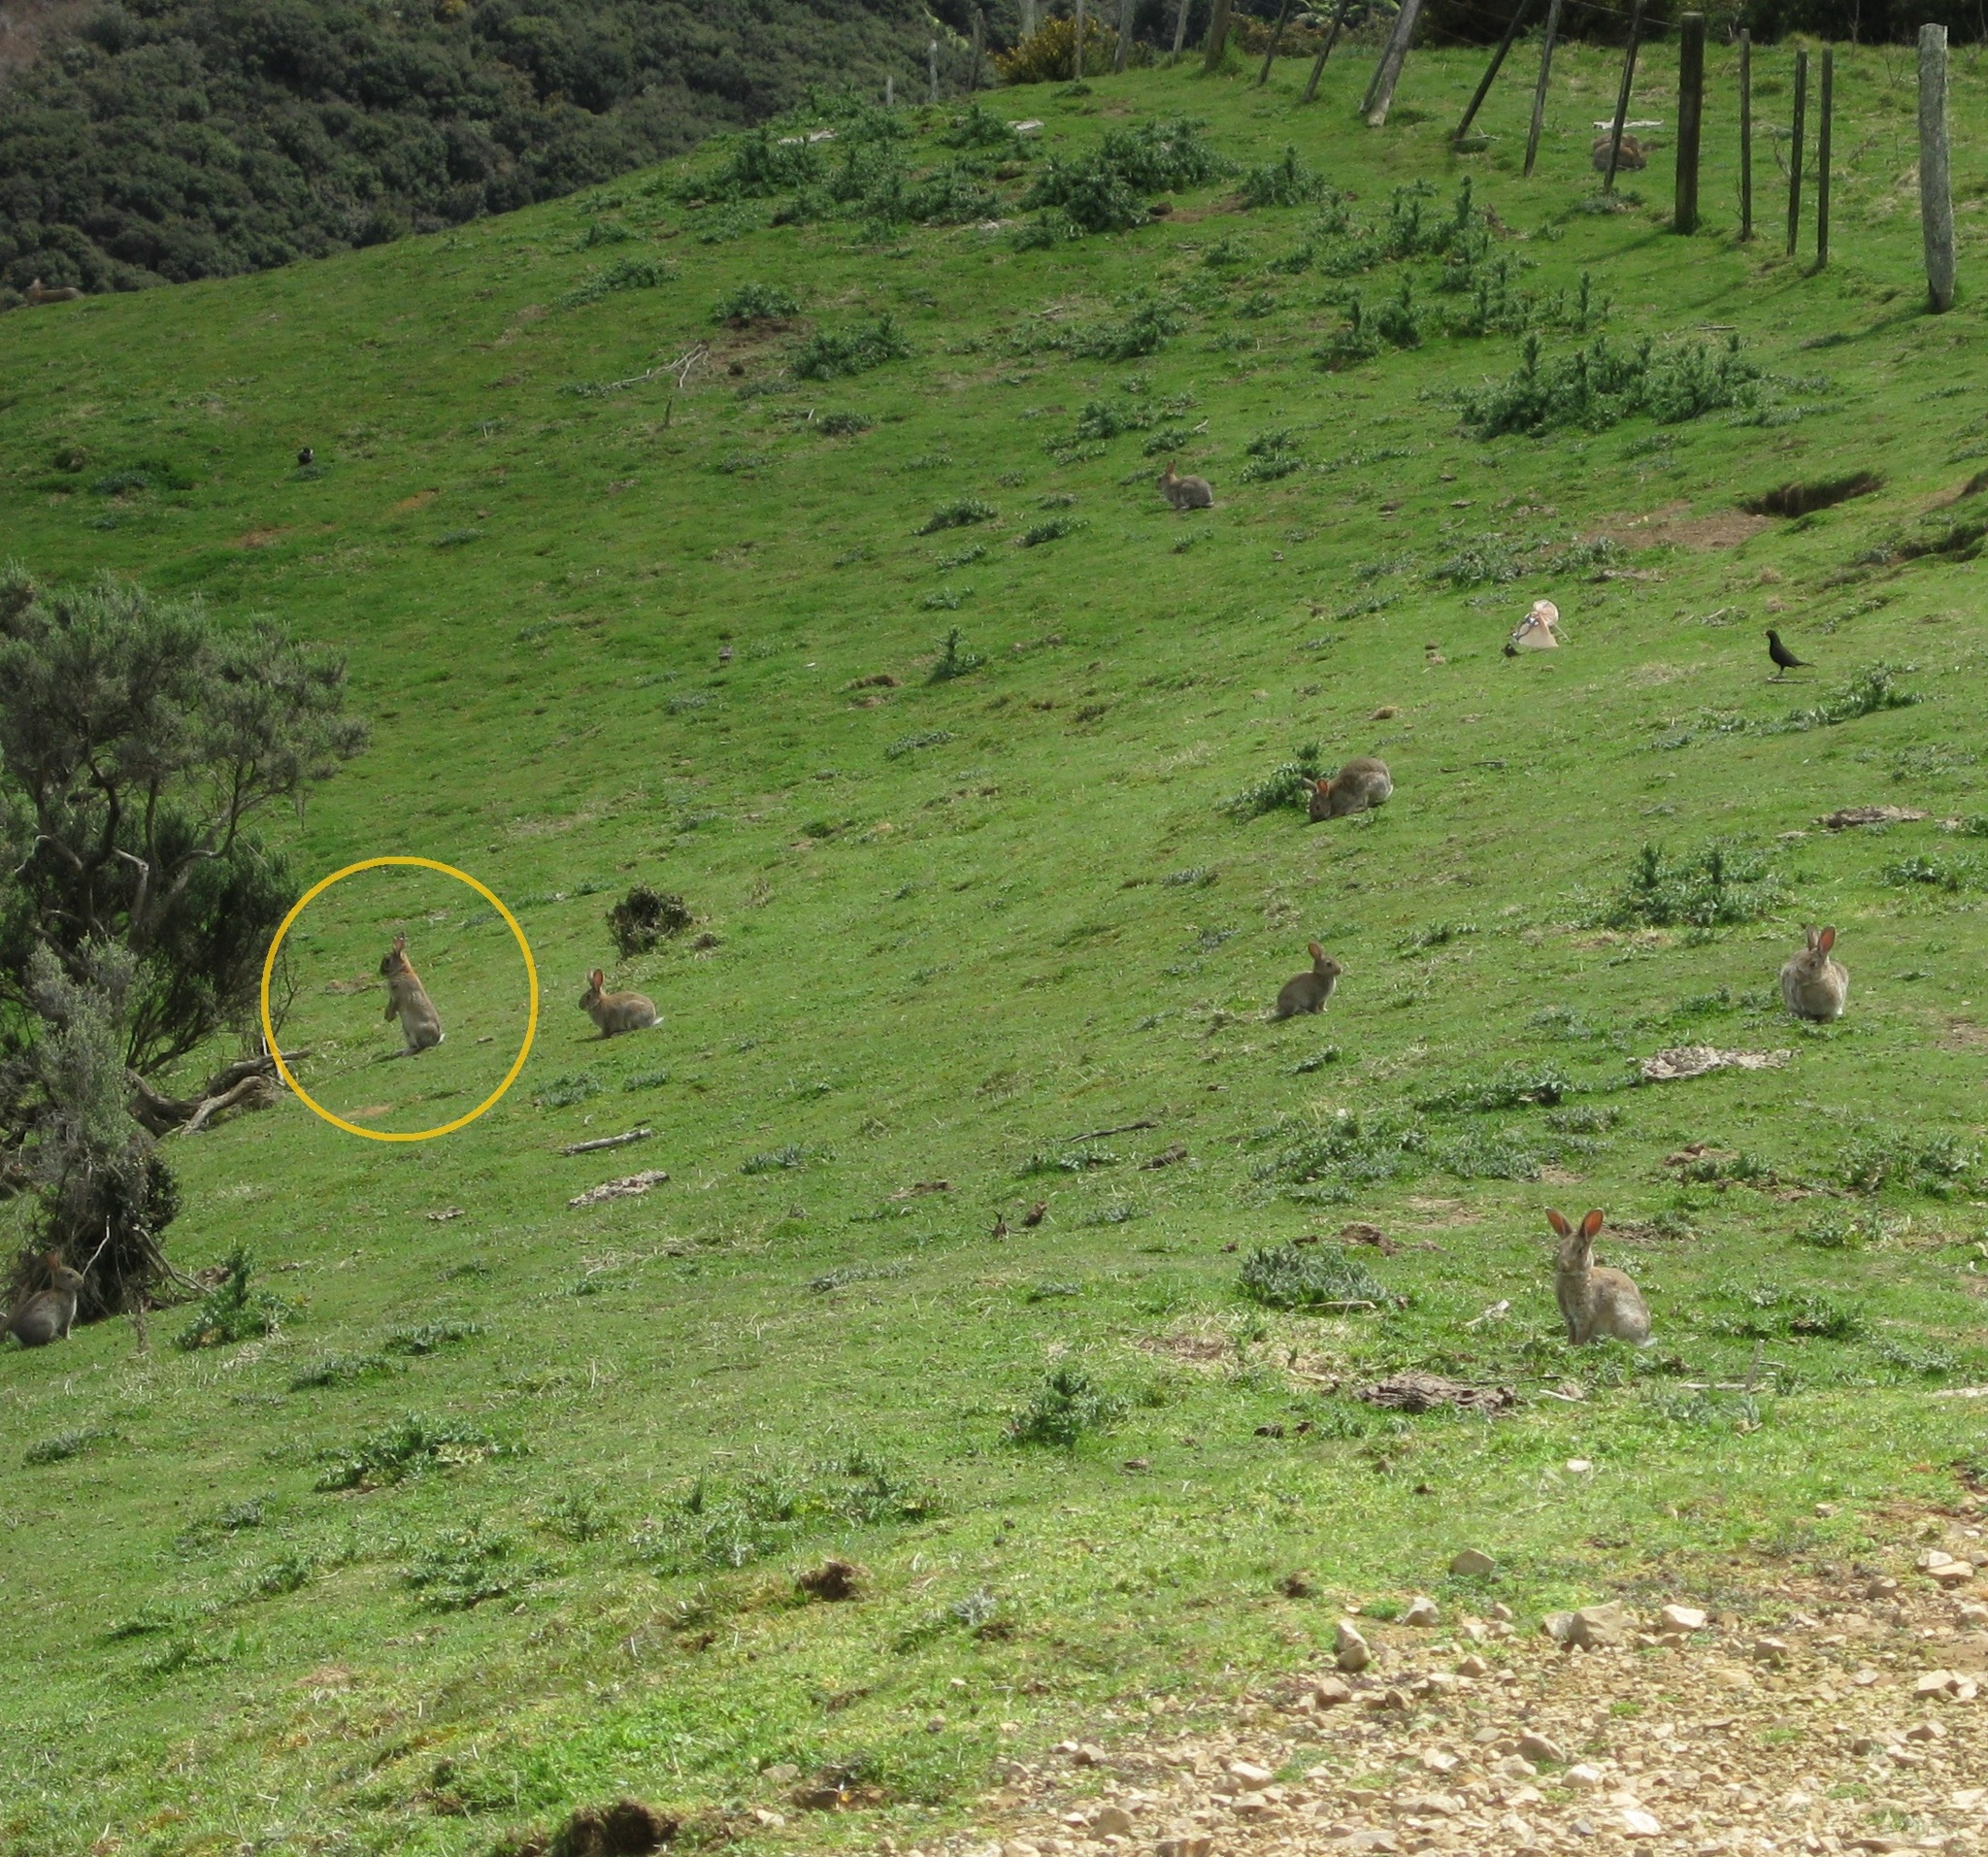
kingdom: Animalia
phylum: Chordata
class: Mammalia
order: Lagomorpha
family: Leporidae
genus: Oryctolagus
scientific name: Oryctolagus cuniculus
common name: European rabbit
